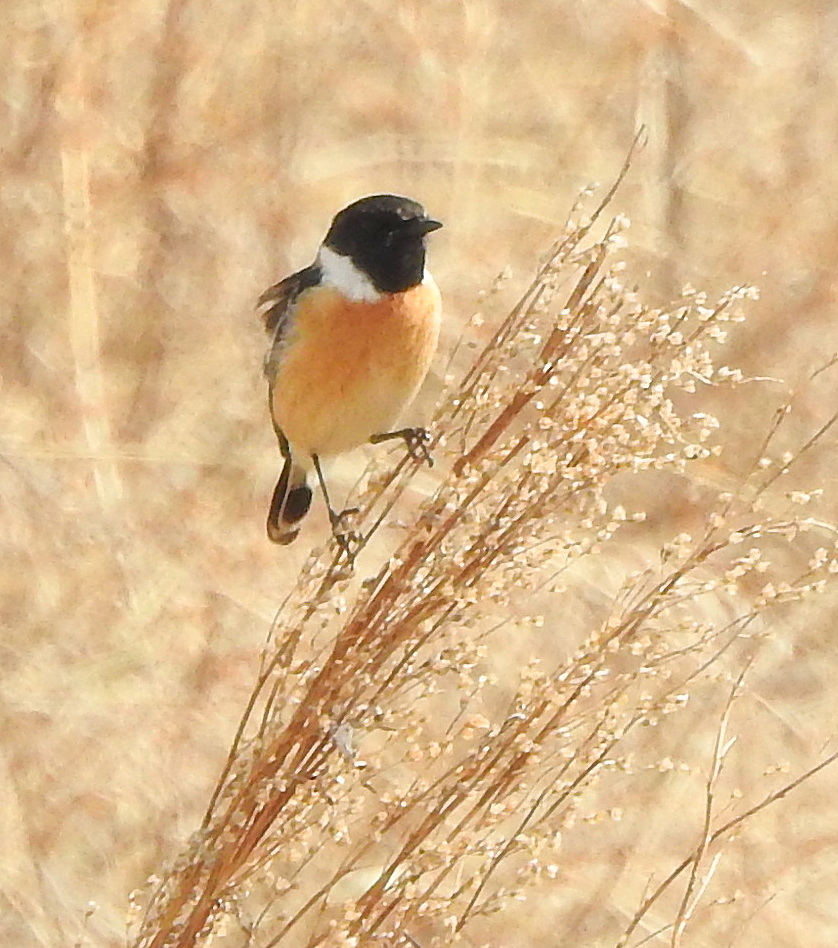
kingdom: Animalia
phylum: Chordata
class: Aves
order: Passeriformes
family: Muscicapidae
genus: Saxicola
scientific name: Saxicola maurus
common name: Siberian stonechat
